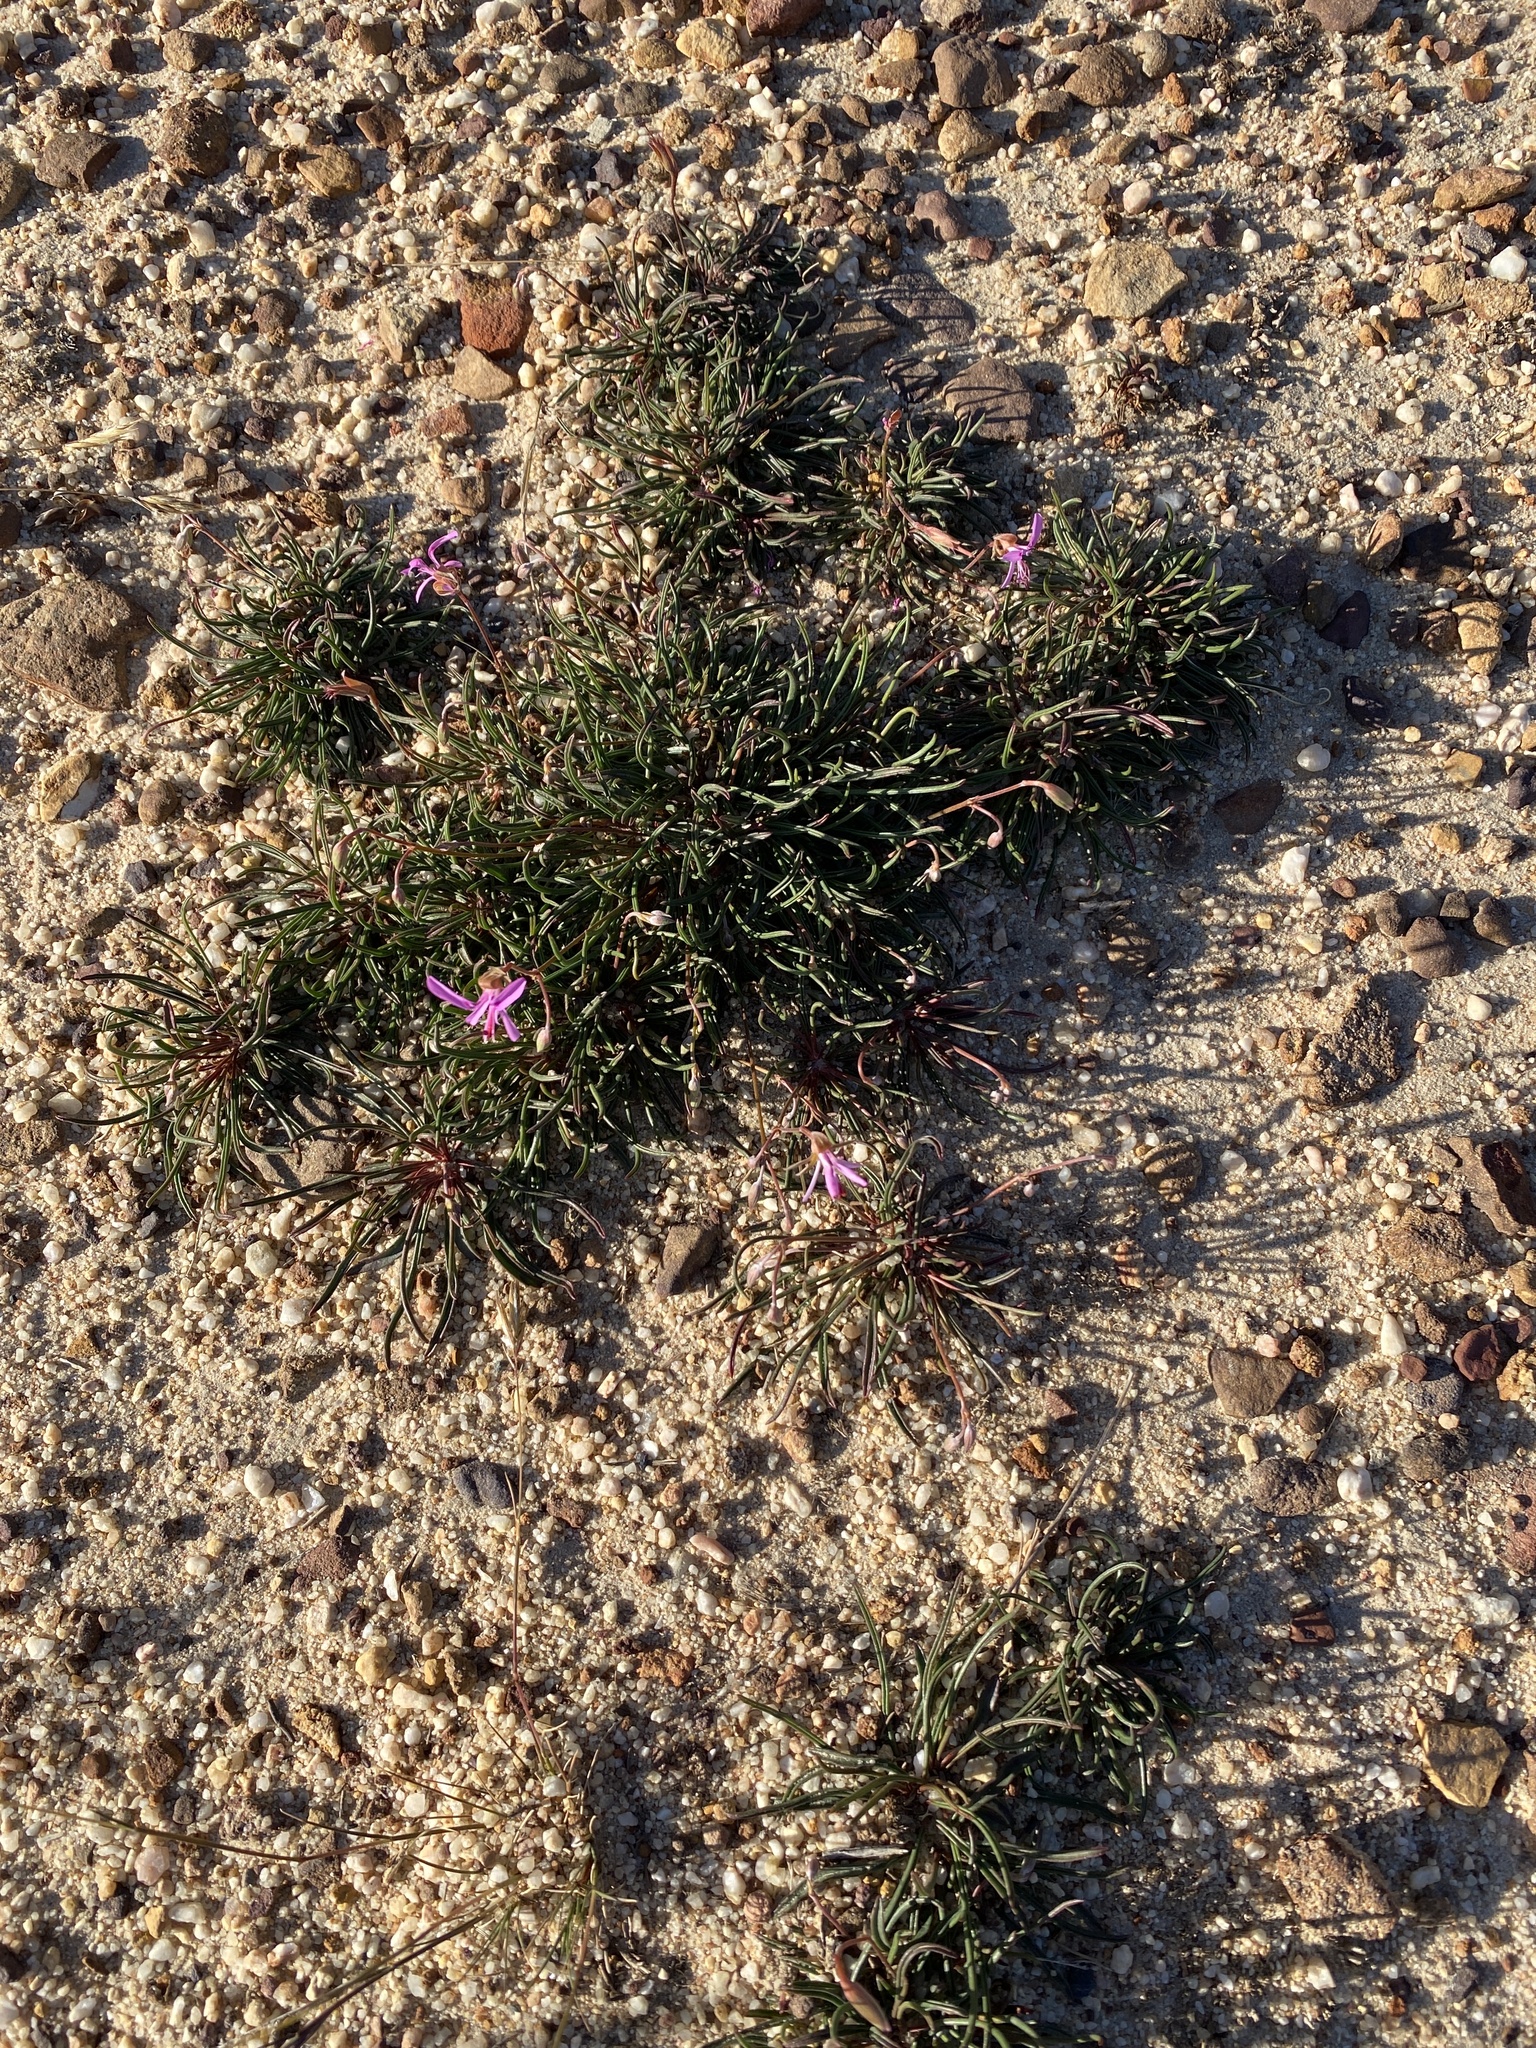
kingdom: Plantae
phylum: Tracheophyta
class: Magnoliopsida
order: Geraniales
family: Geraniaceae
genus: Pelargonium
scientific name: Pelargonium coronopifolium
